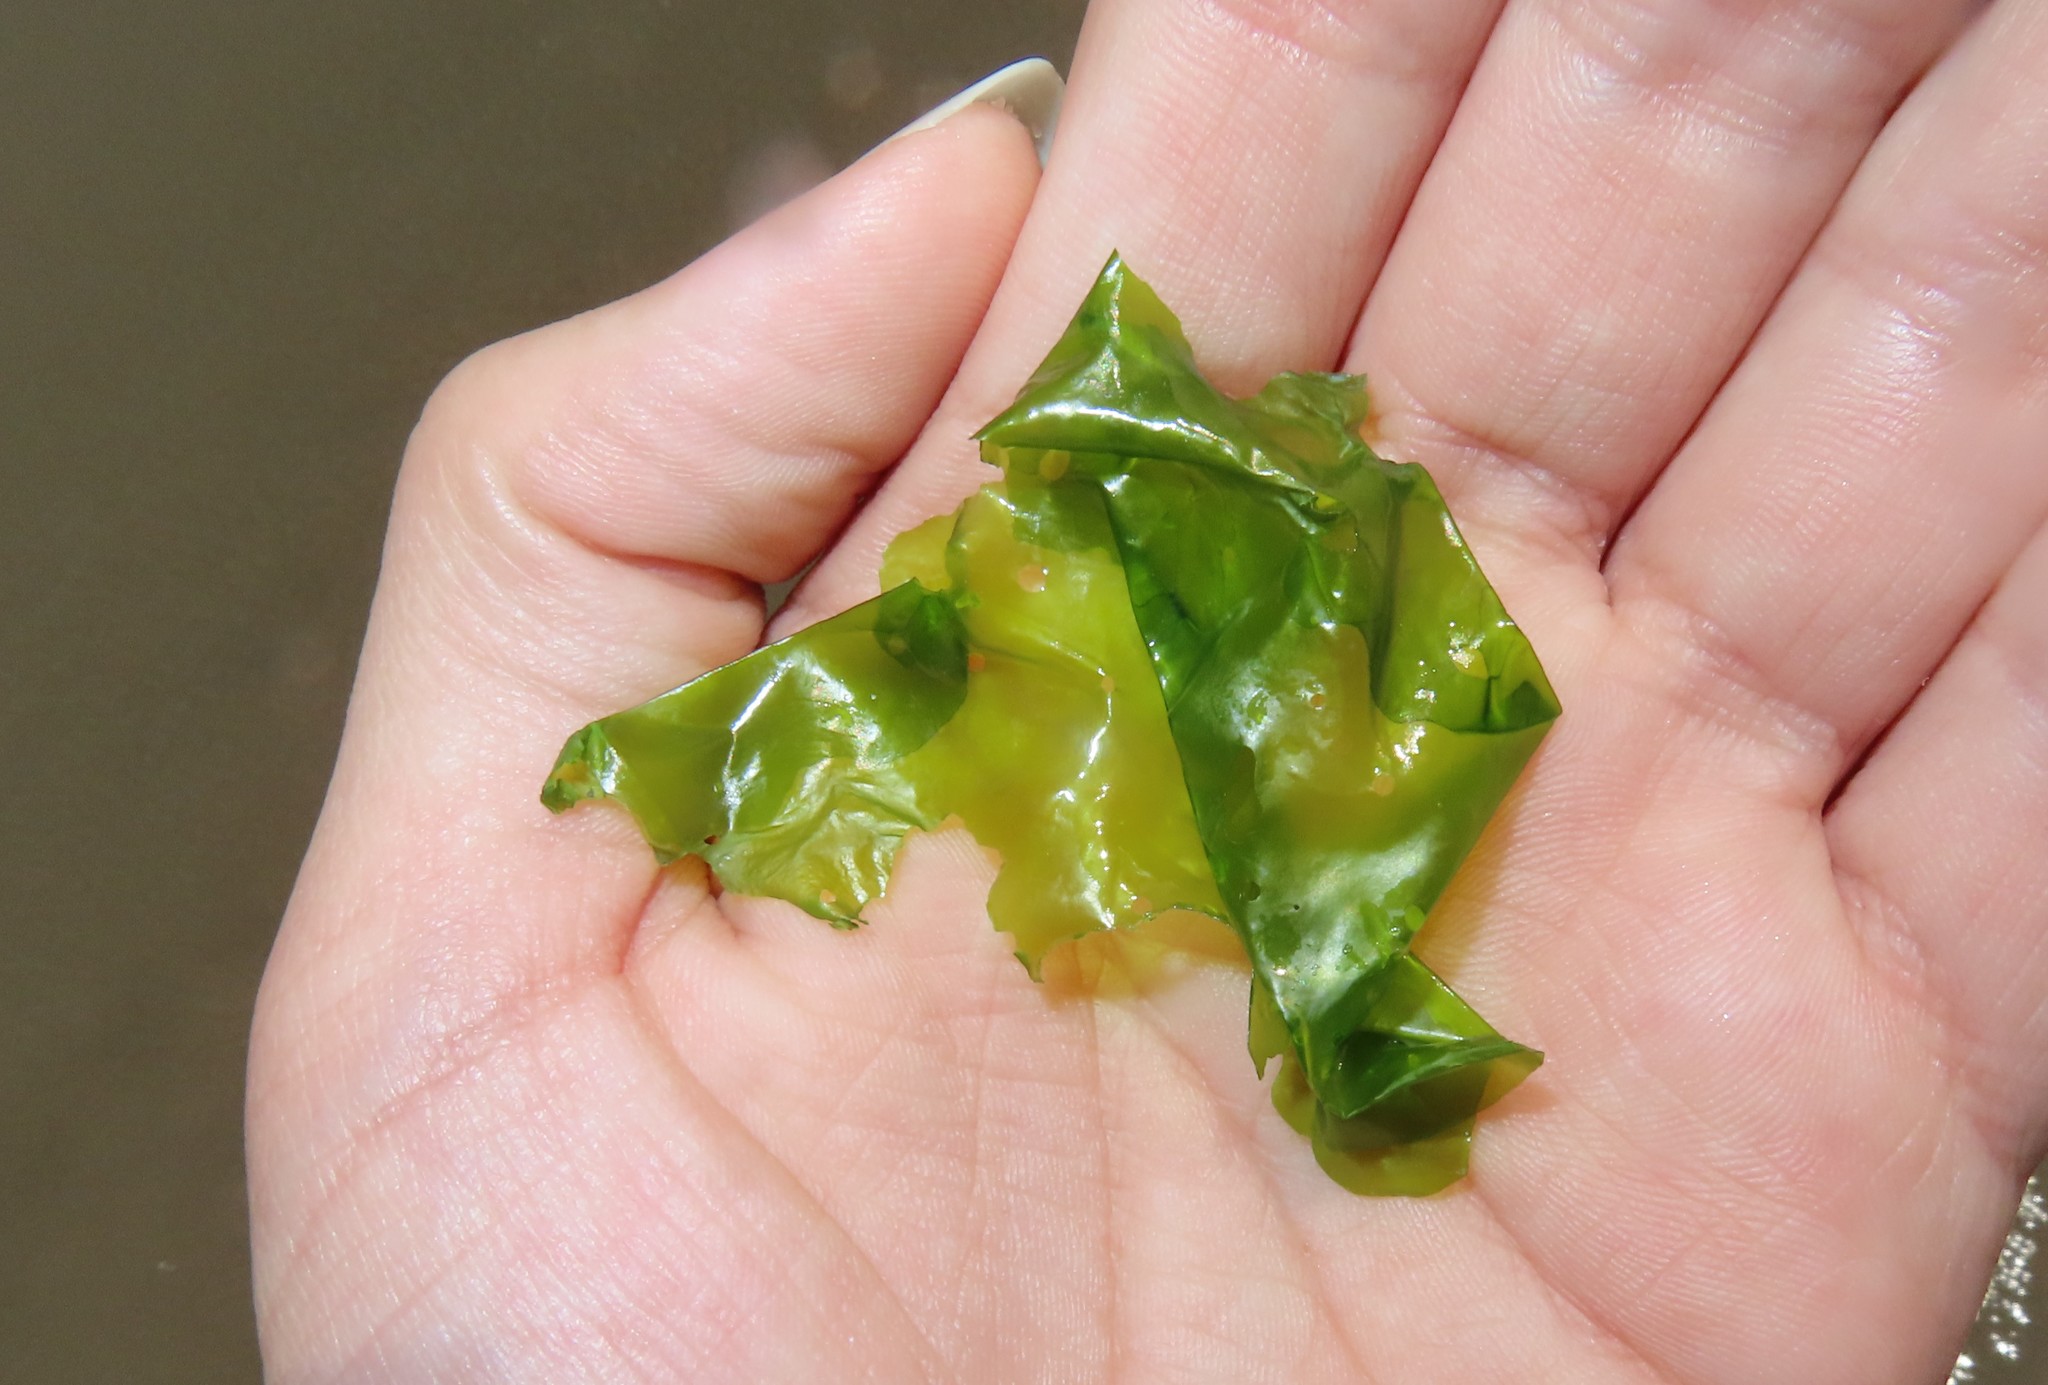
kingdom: Plantae
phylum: Chlorophyta
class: Ulvophyceae
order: Ulvales
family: Ulvaceae
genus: Ulva
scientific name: Ulva lactuca
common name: Sea lettuce
